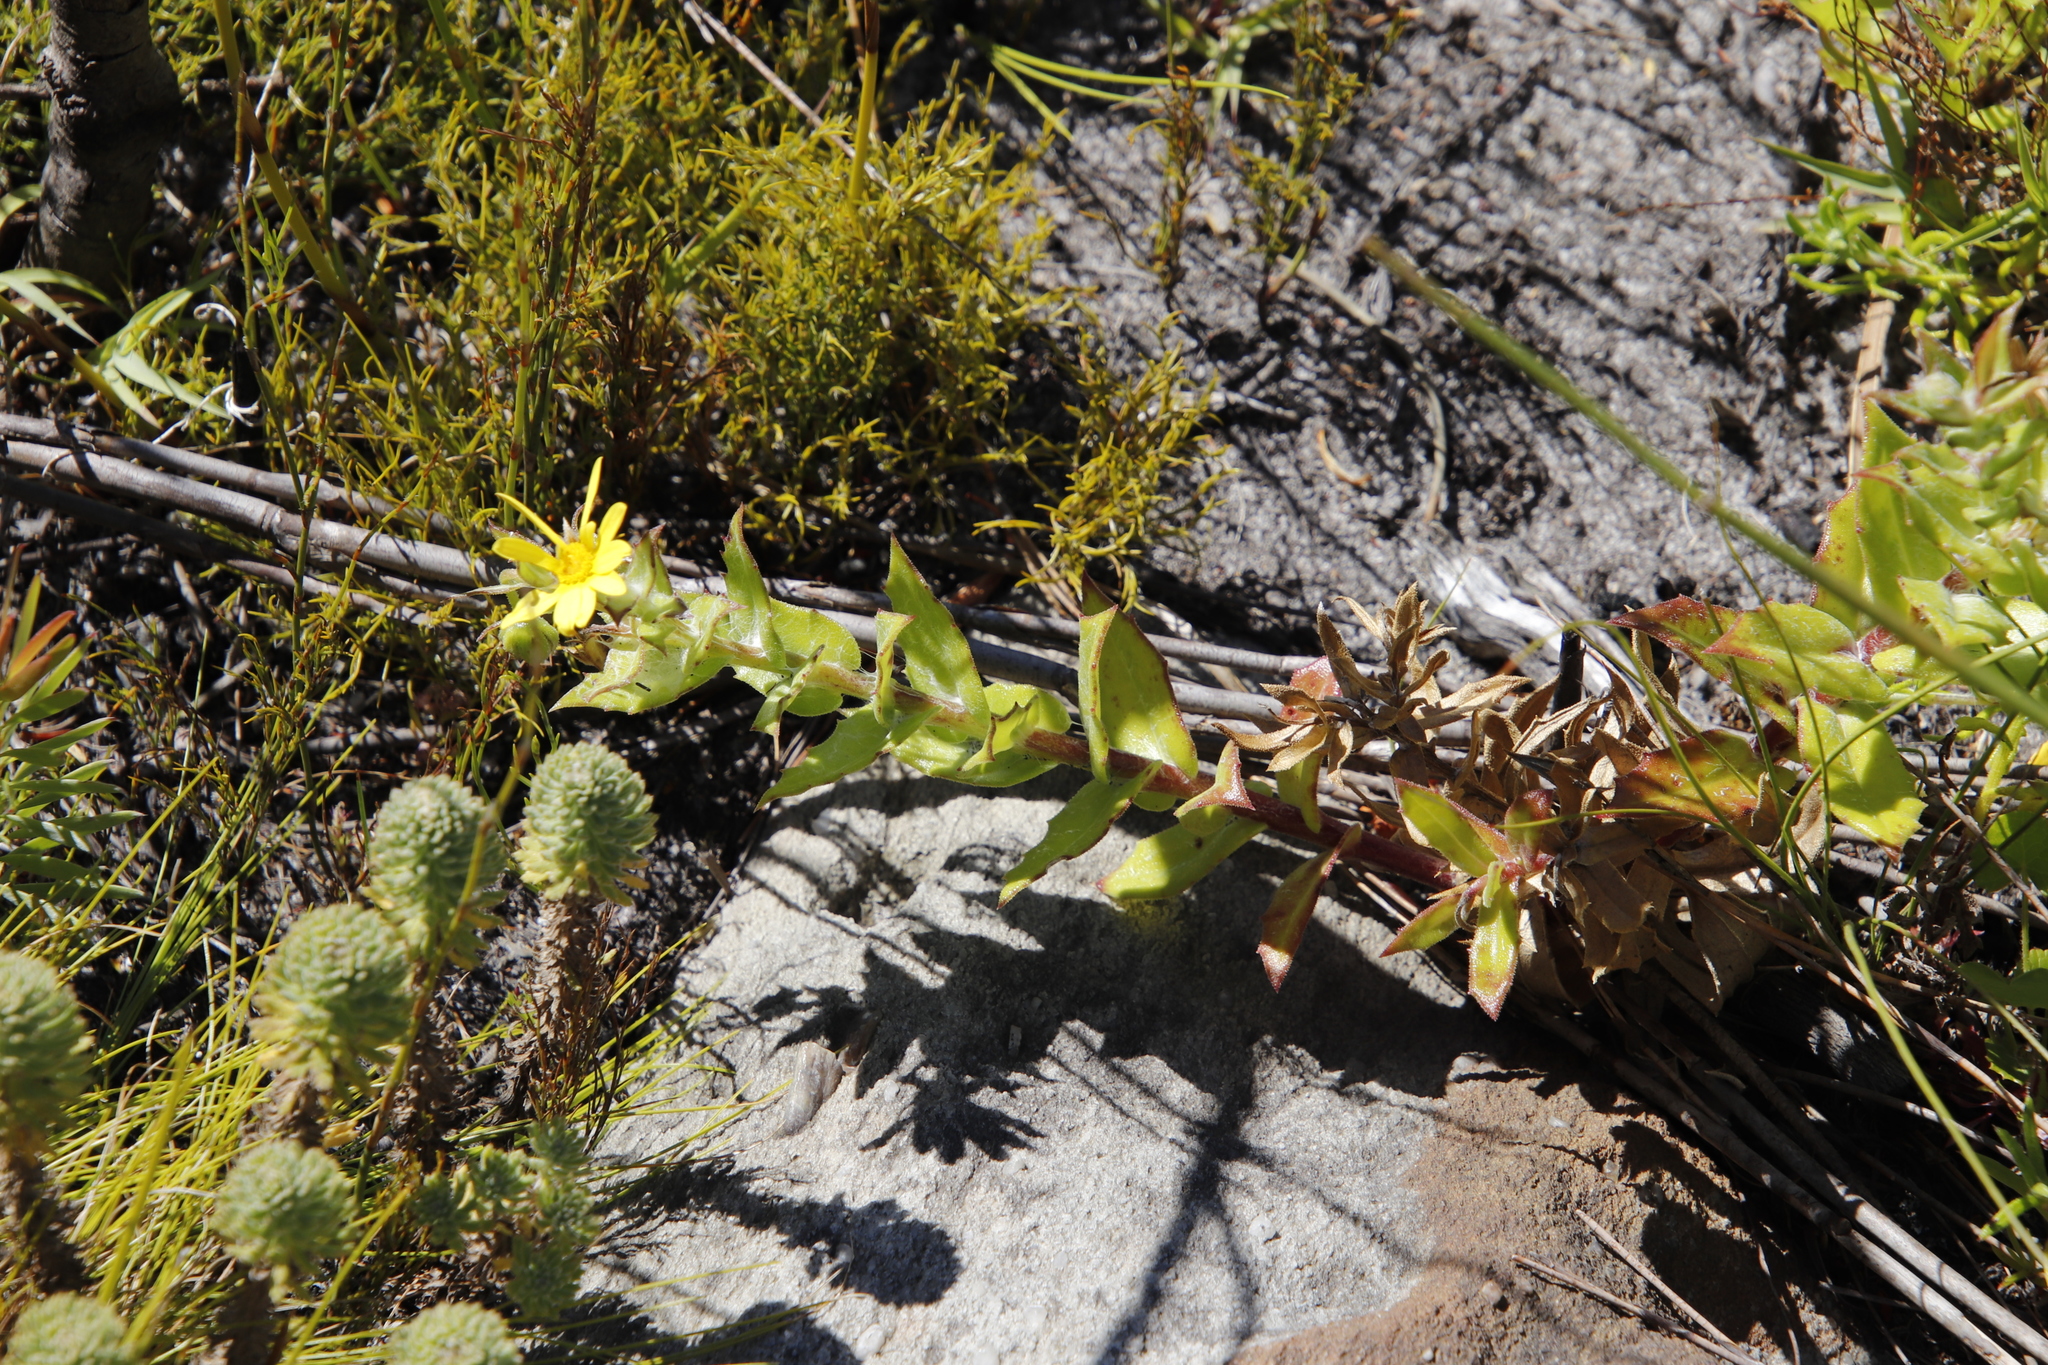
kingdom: Plantae
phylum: Tracheophyta
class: Magnoliopsida
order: Asterales
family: Asteraceae
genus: Osteospermum
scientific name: Osteospermum ilicifolium
